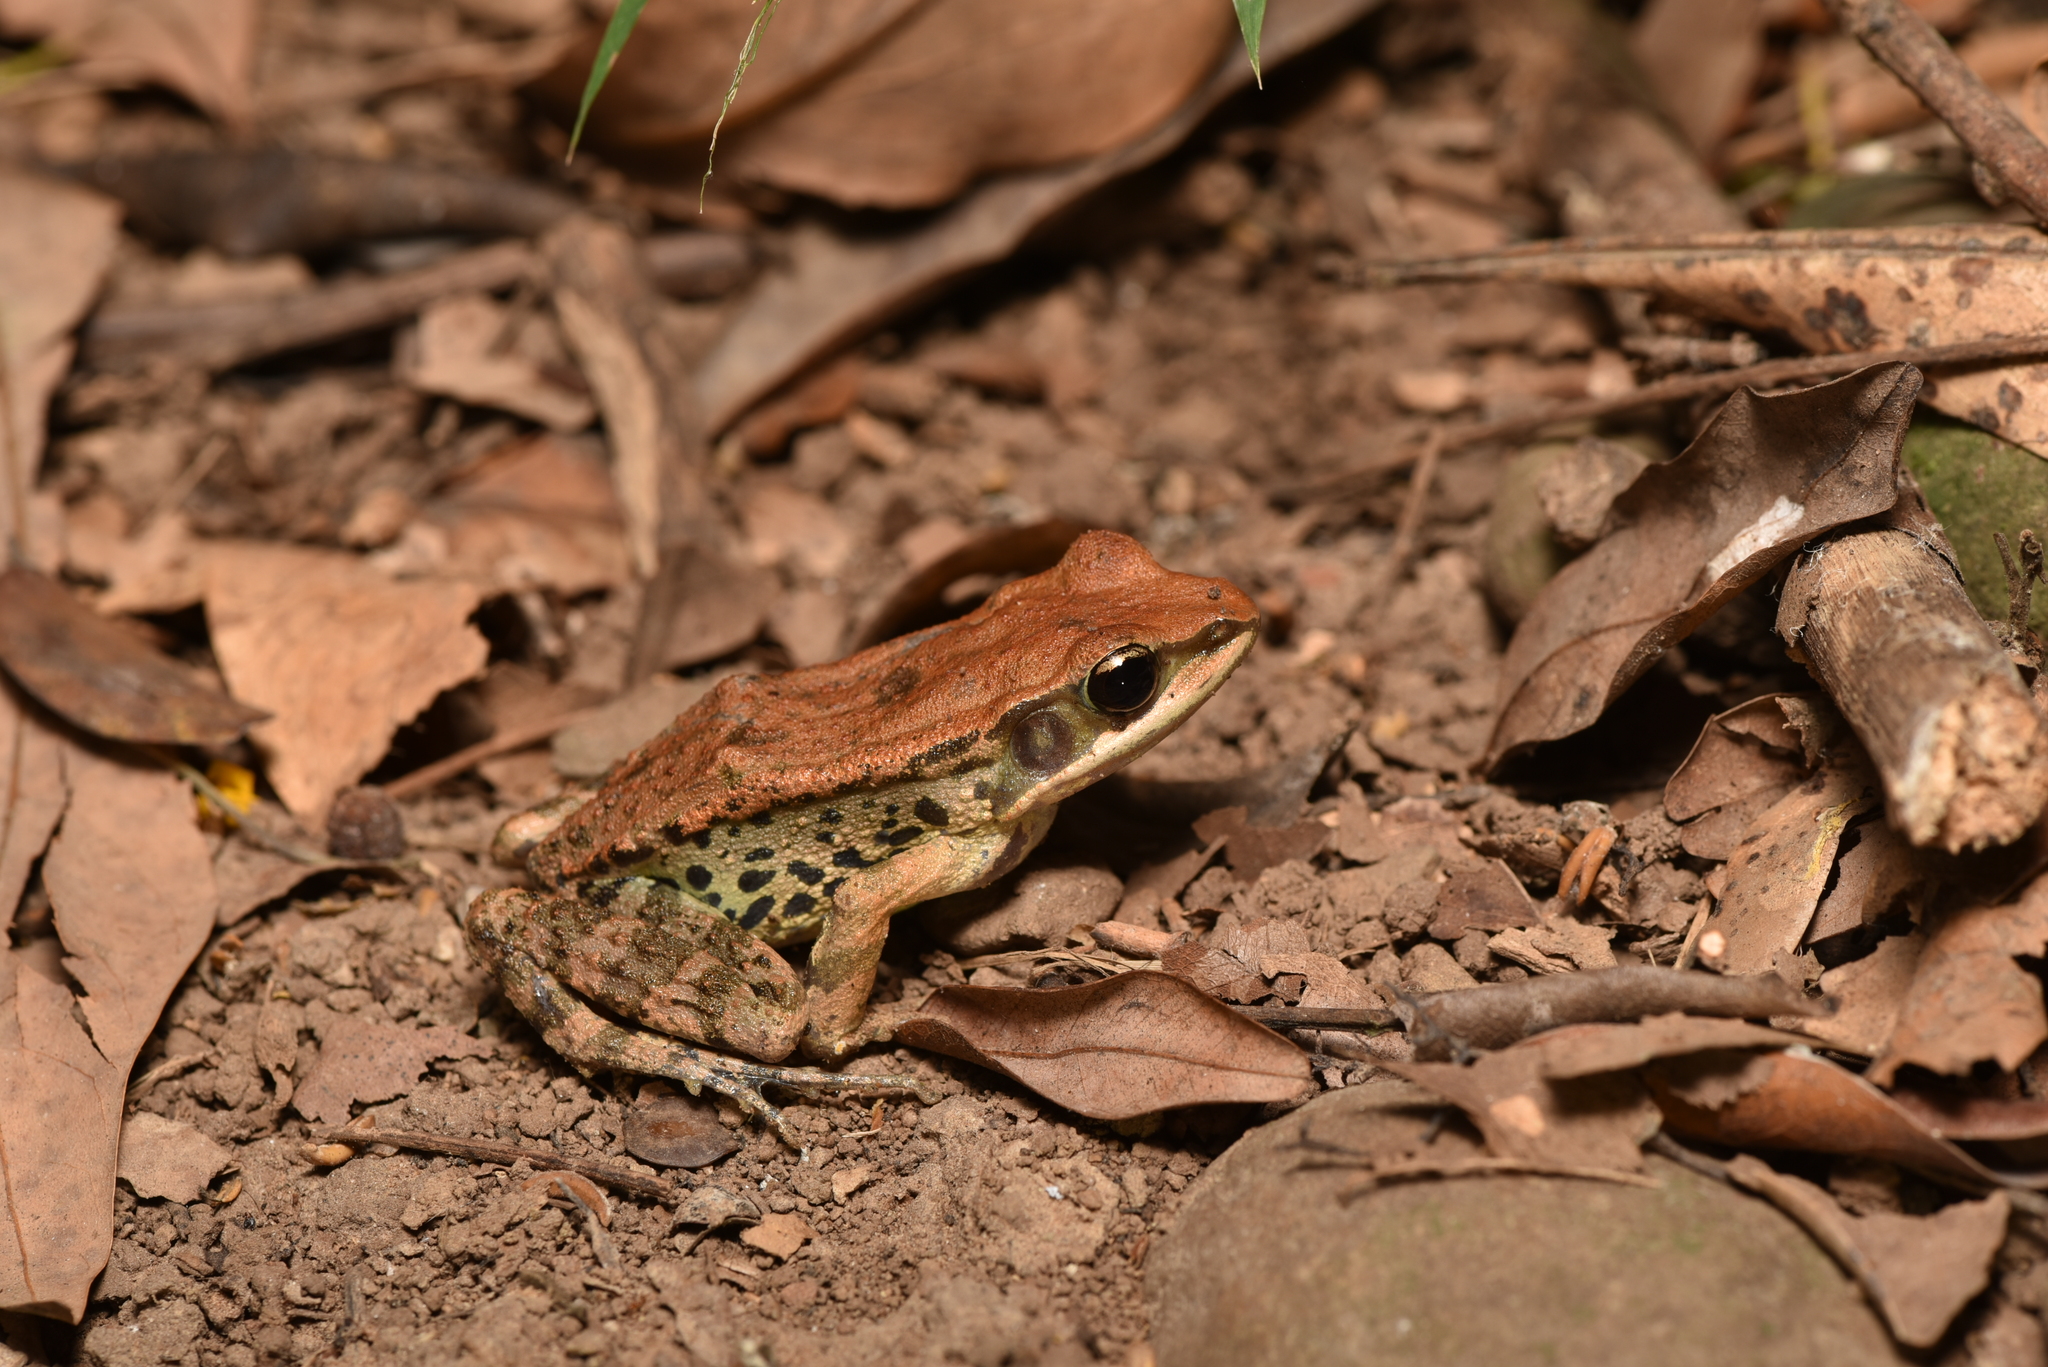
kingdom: Animalia
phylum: Chordata
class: Amphibia
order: Anura
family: Ranidae
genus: Hylarana
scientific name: Hylarana latouchii
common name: Broad-folded frog
